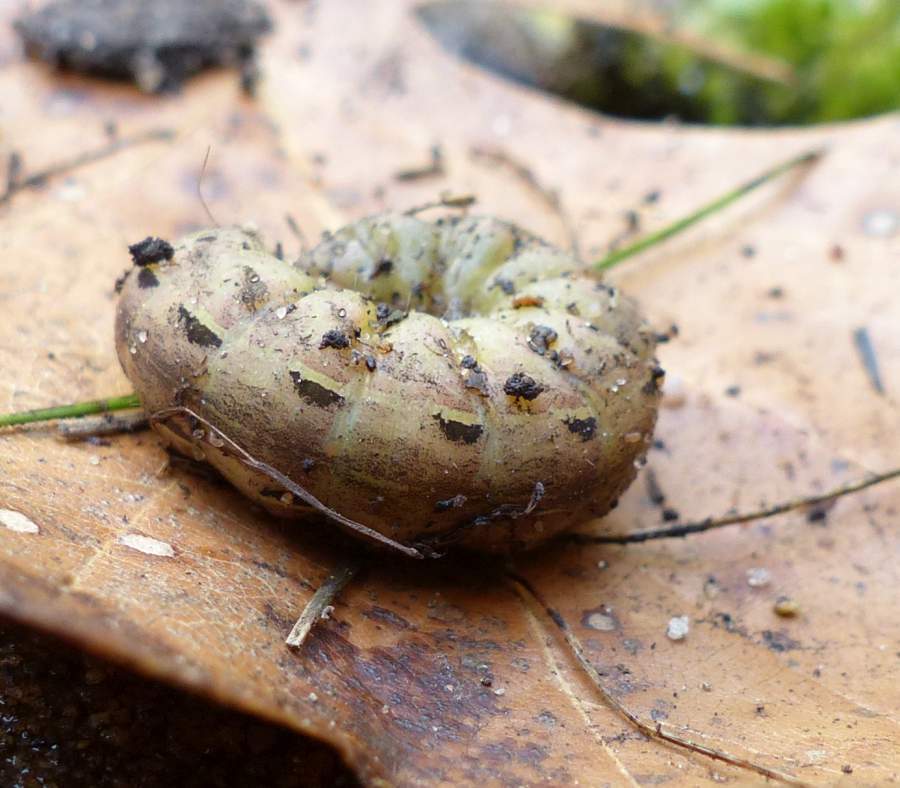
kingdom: Animalia
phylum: Arthropoda
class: Insecta
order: Lepidoptera
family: Noctuidae
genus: Noctua
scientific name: Noctua pronuba
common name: Large yellow underwing
